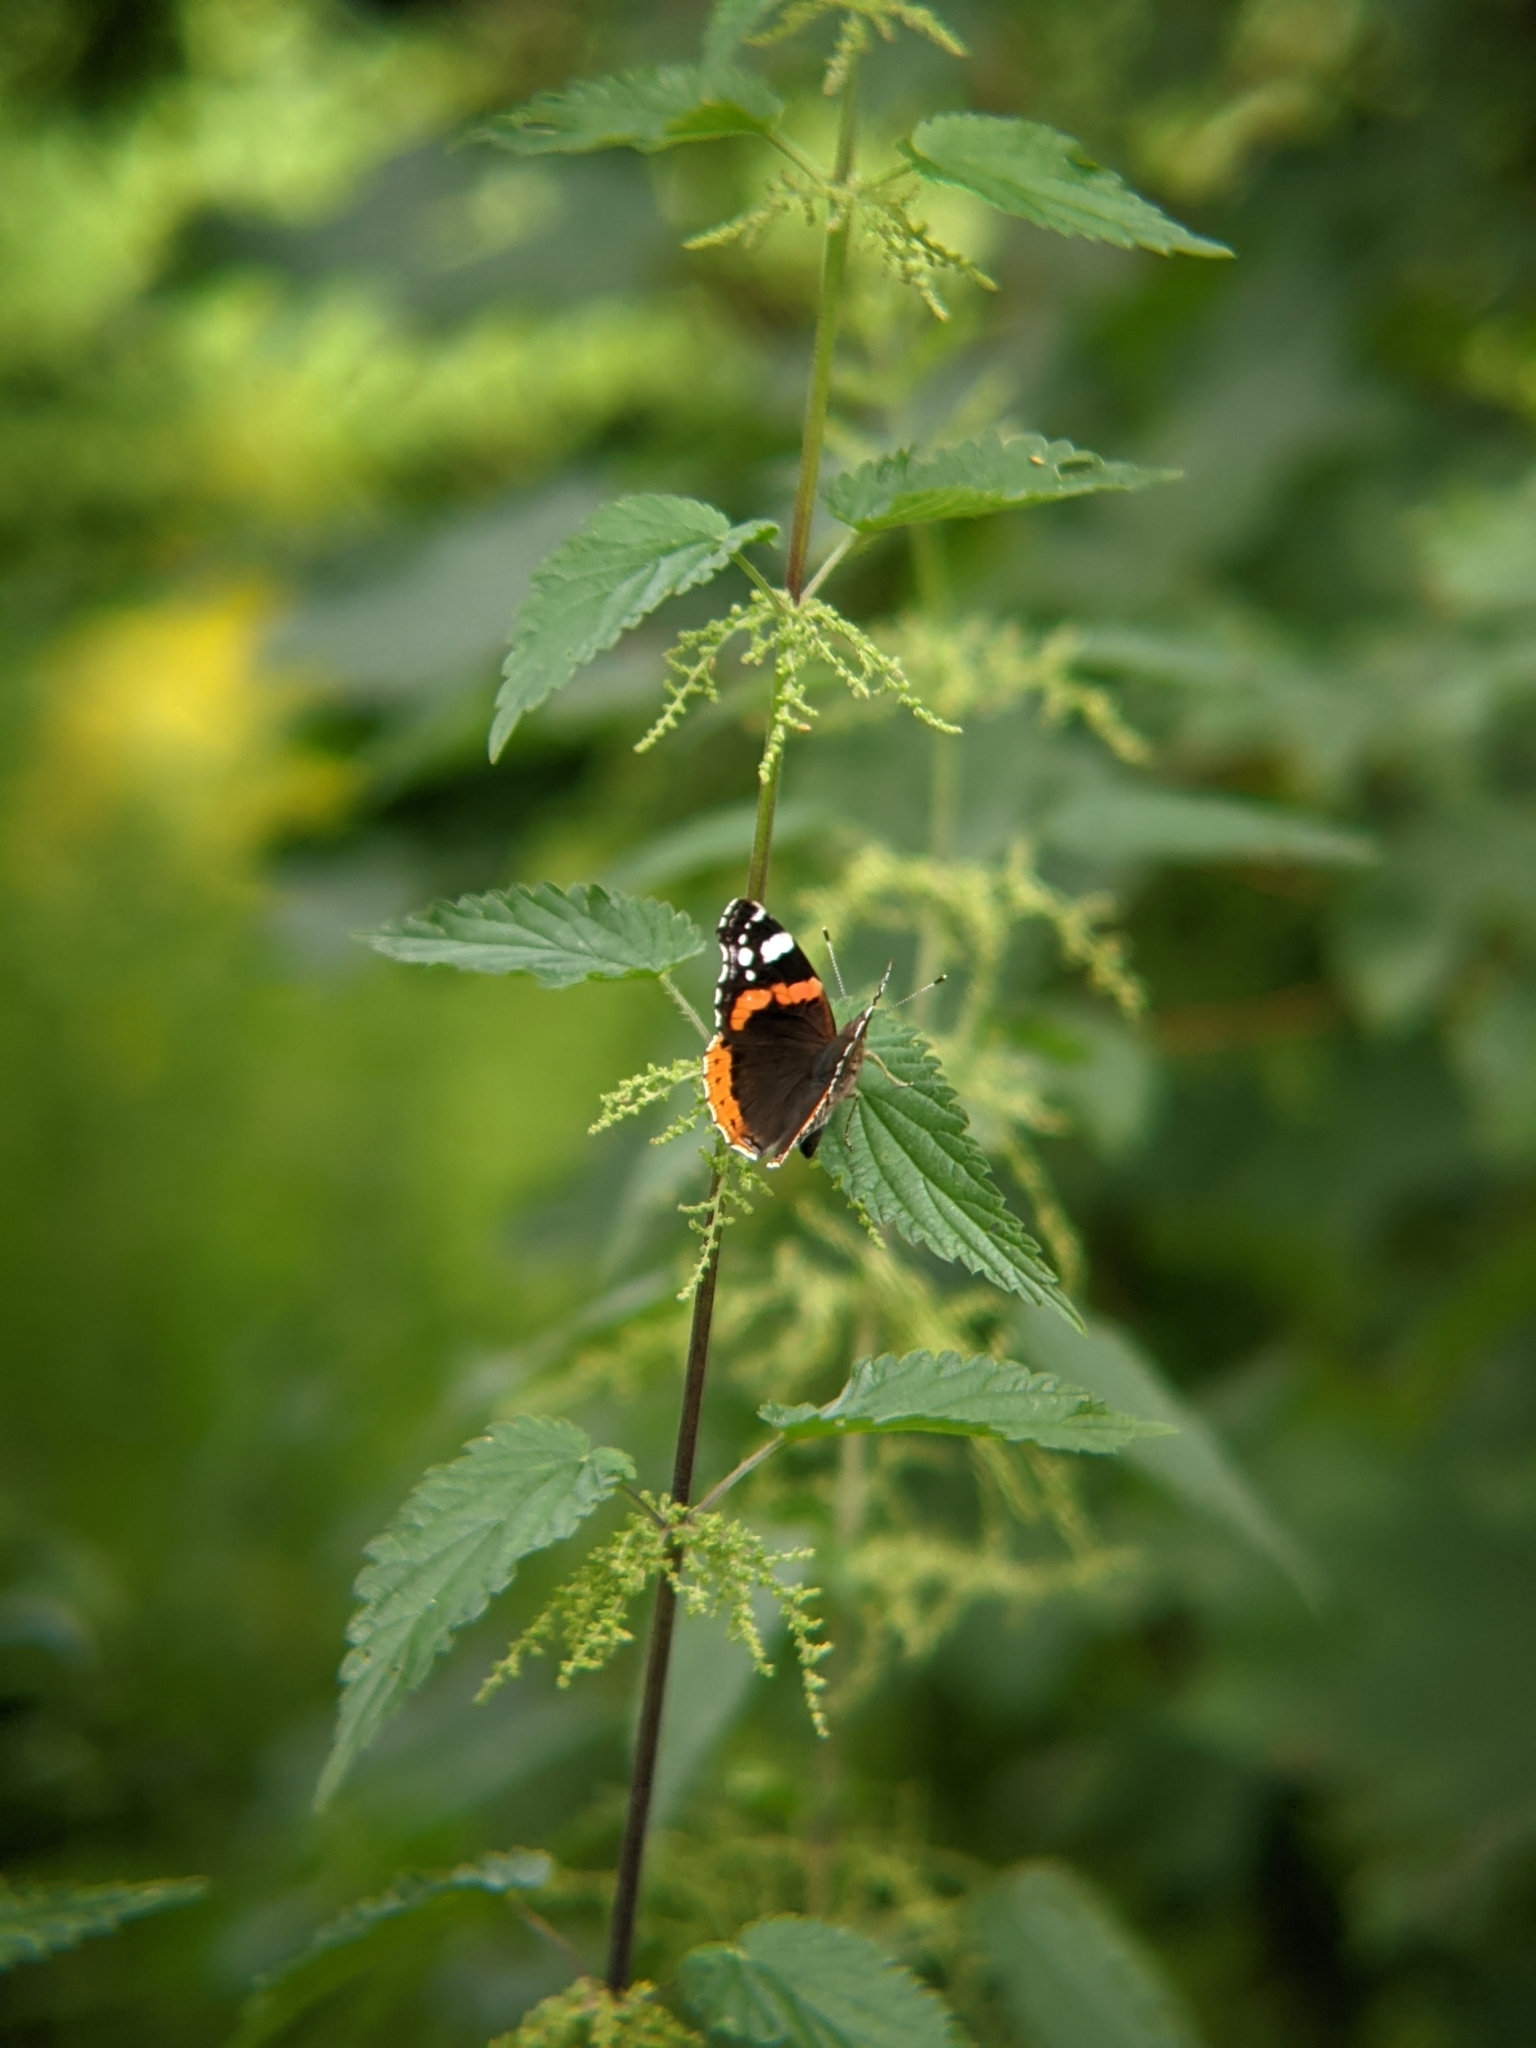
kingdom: Animalia
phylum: Arthropoda
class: Insecta
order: Lepidoptera
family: Nymphalidae
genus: Vanessa
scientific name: Vanessa atalanta
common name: Red admiral
